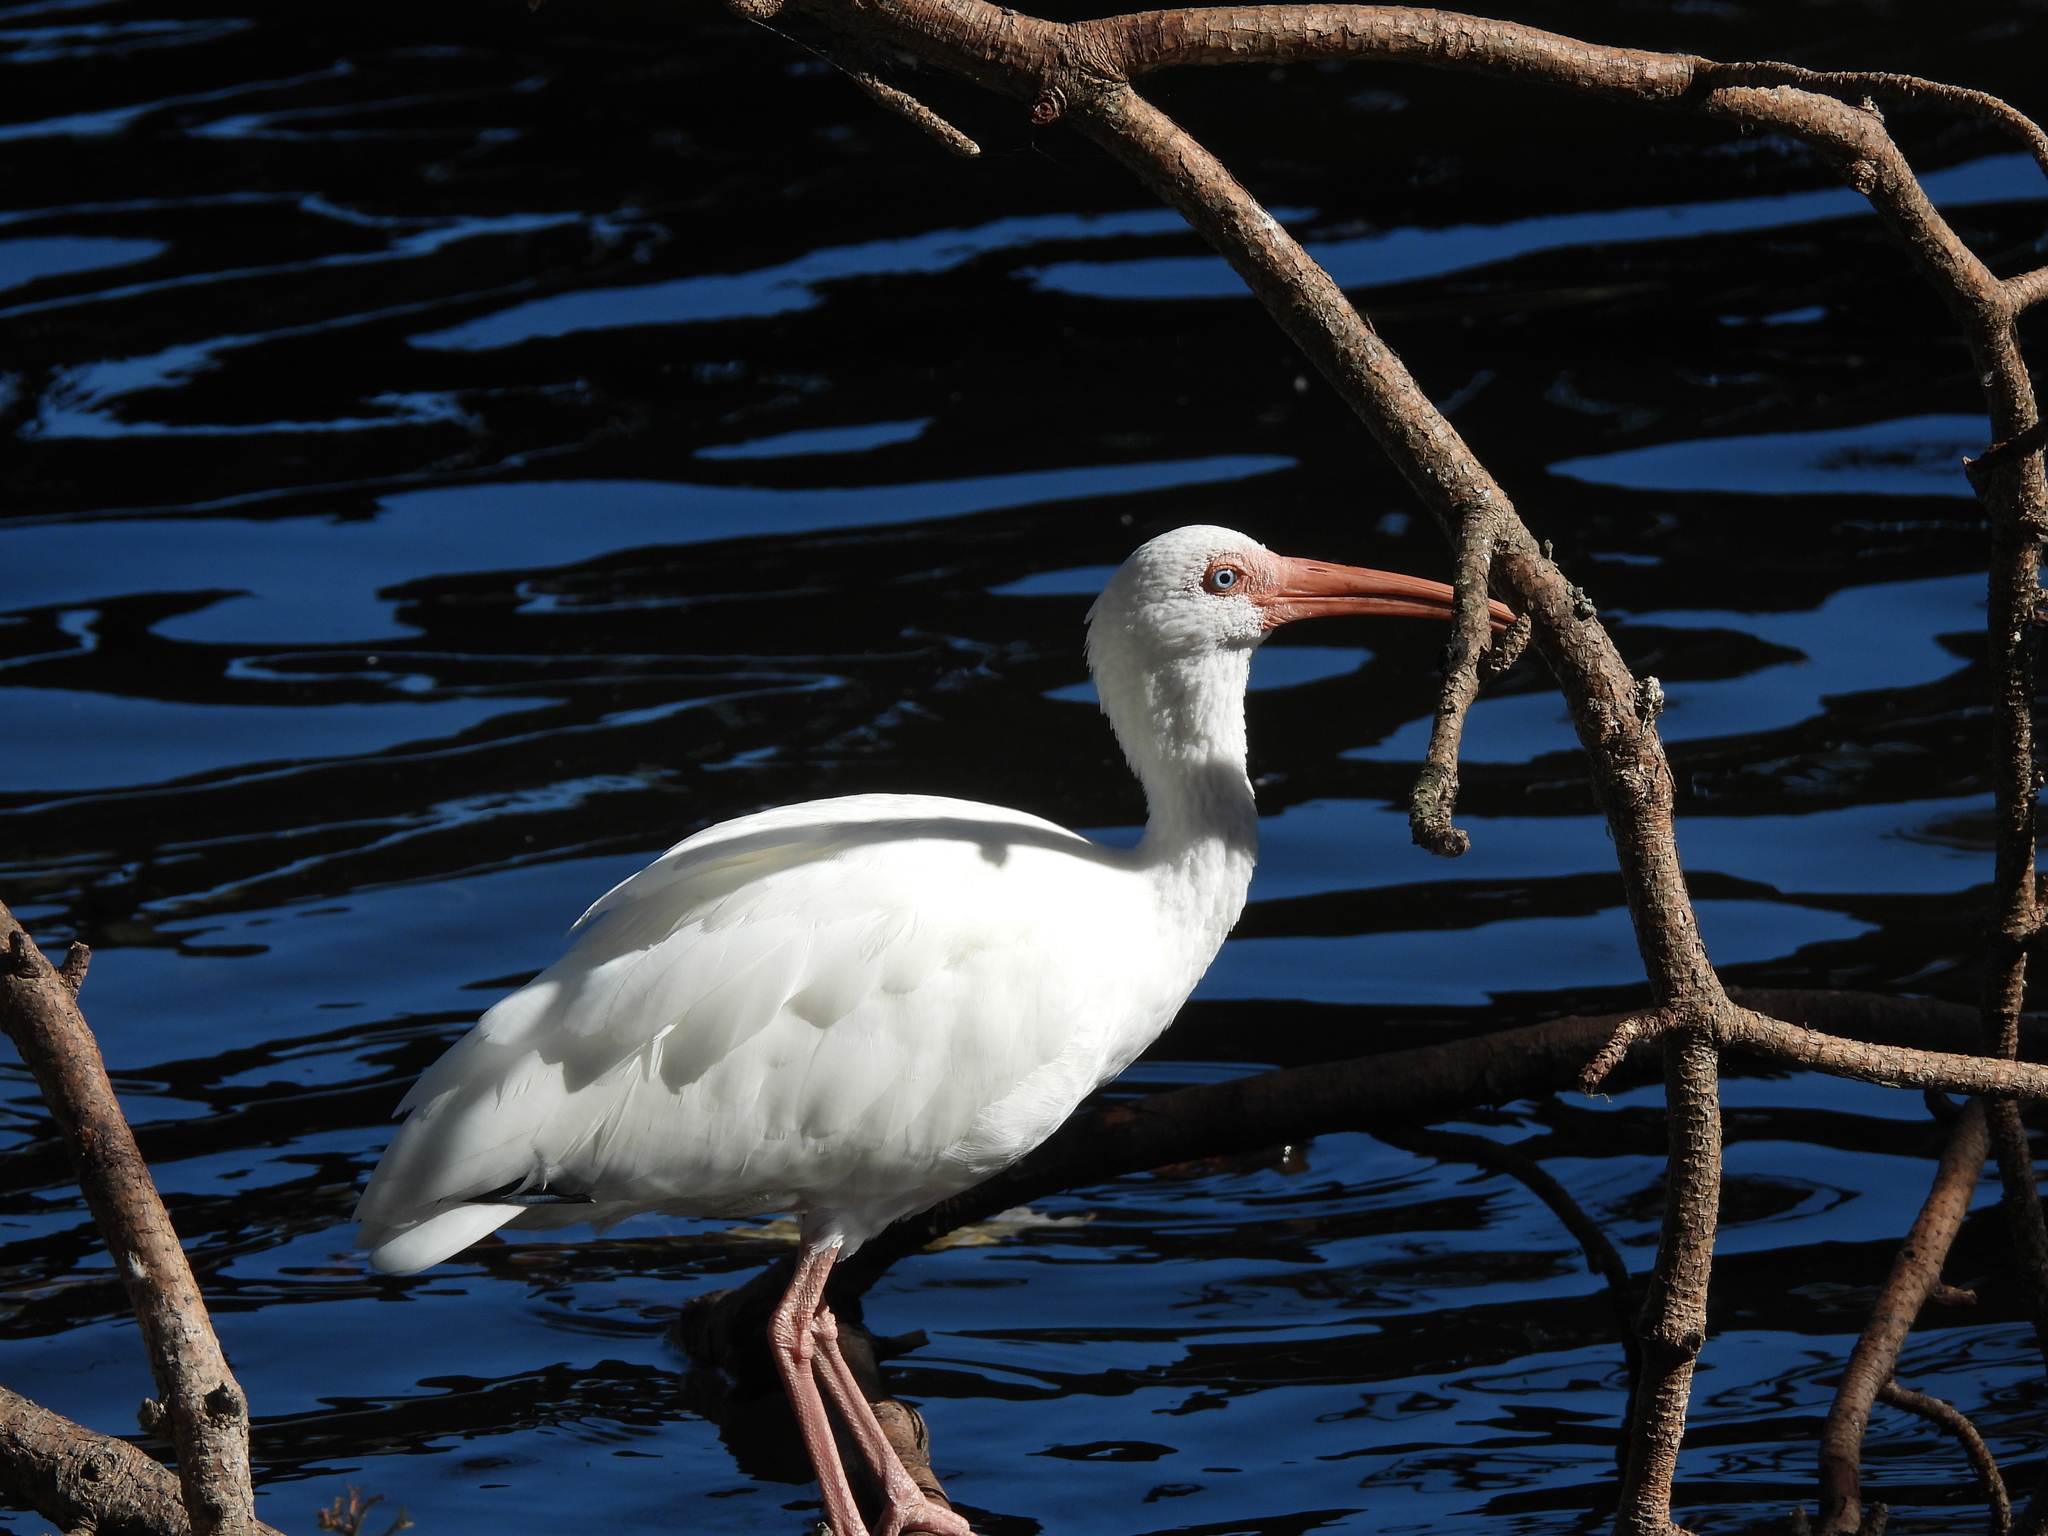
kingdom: Animalia
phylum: Chordata
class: Aves
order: Pelecaniformes
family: Threskiornithidae
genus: Eudocimus
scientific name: Eudocimus albus
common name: White ibis
